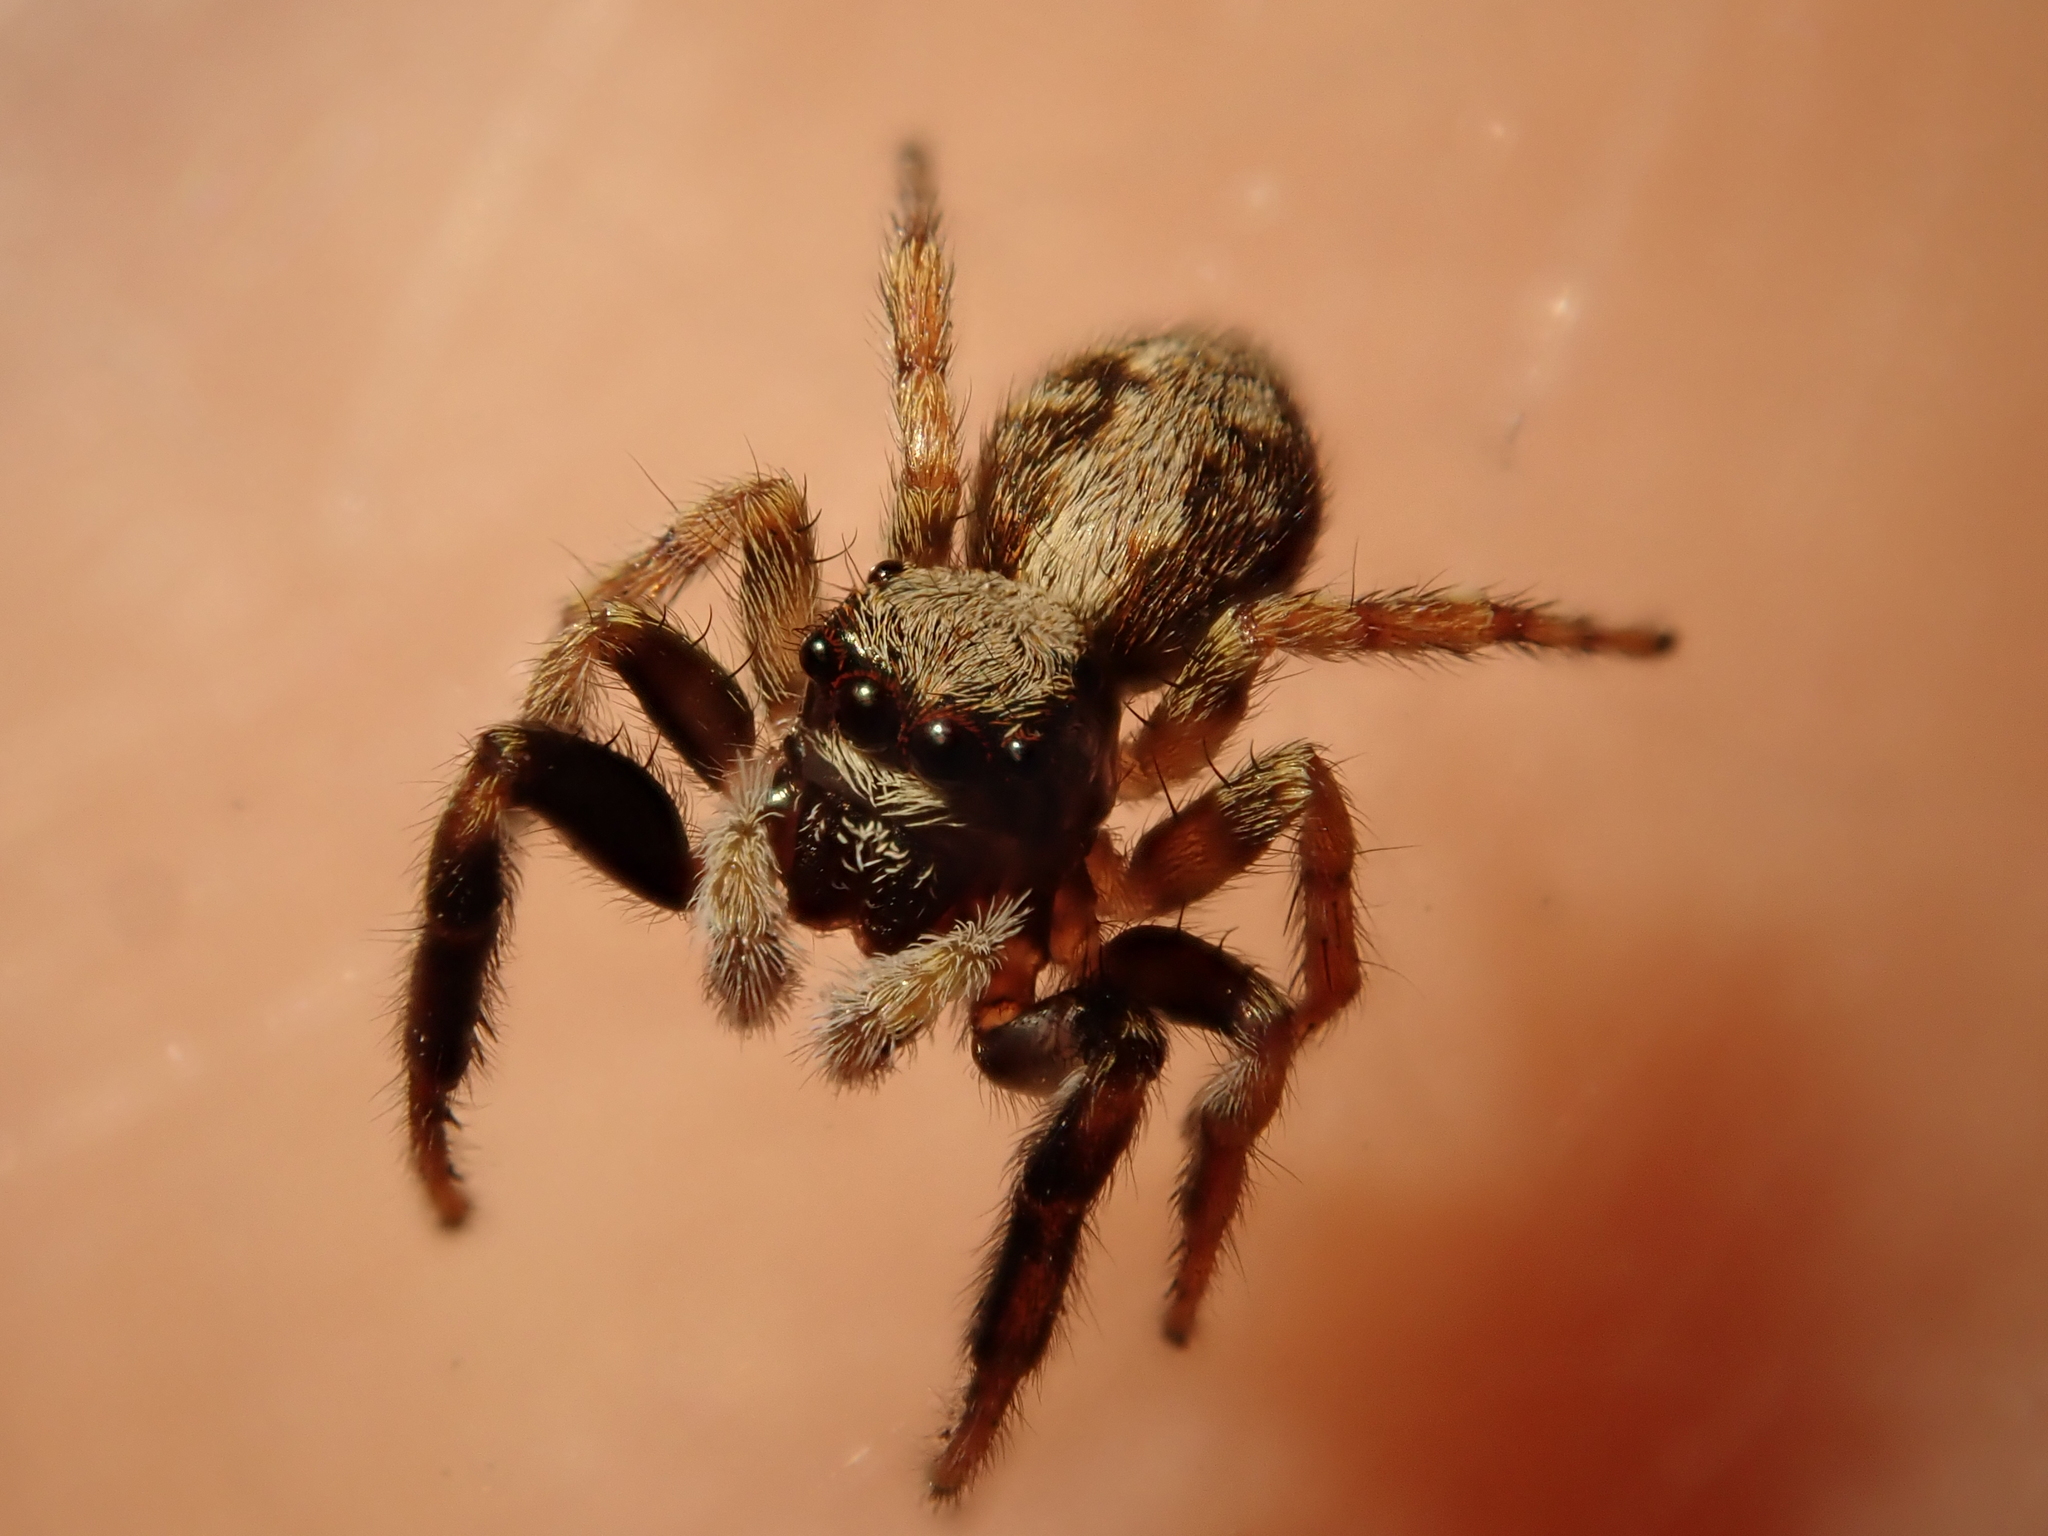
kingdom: Animalia
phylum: Arthropoda
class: Arachnida
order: Araneae
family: Salticidae
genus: Pseudeuophrys
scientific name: Pseudeuophrys lanigera
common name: Jumping spider
